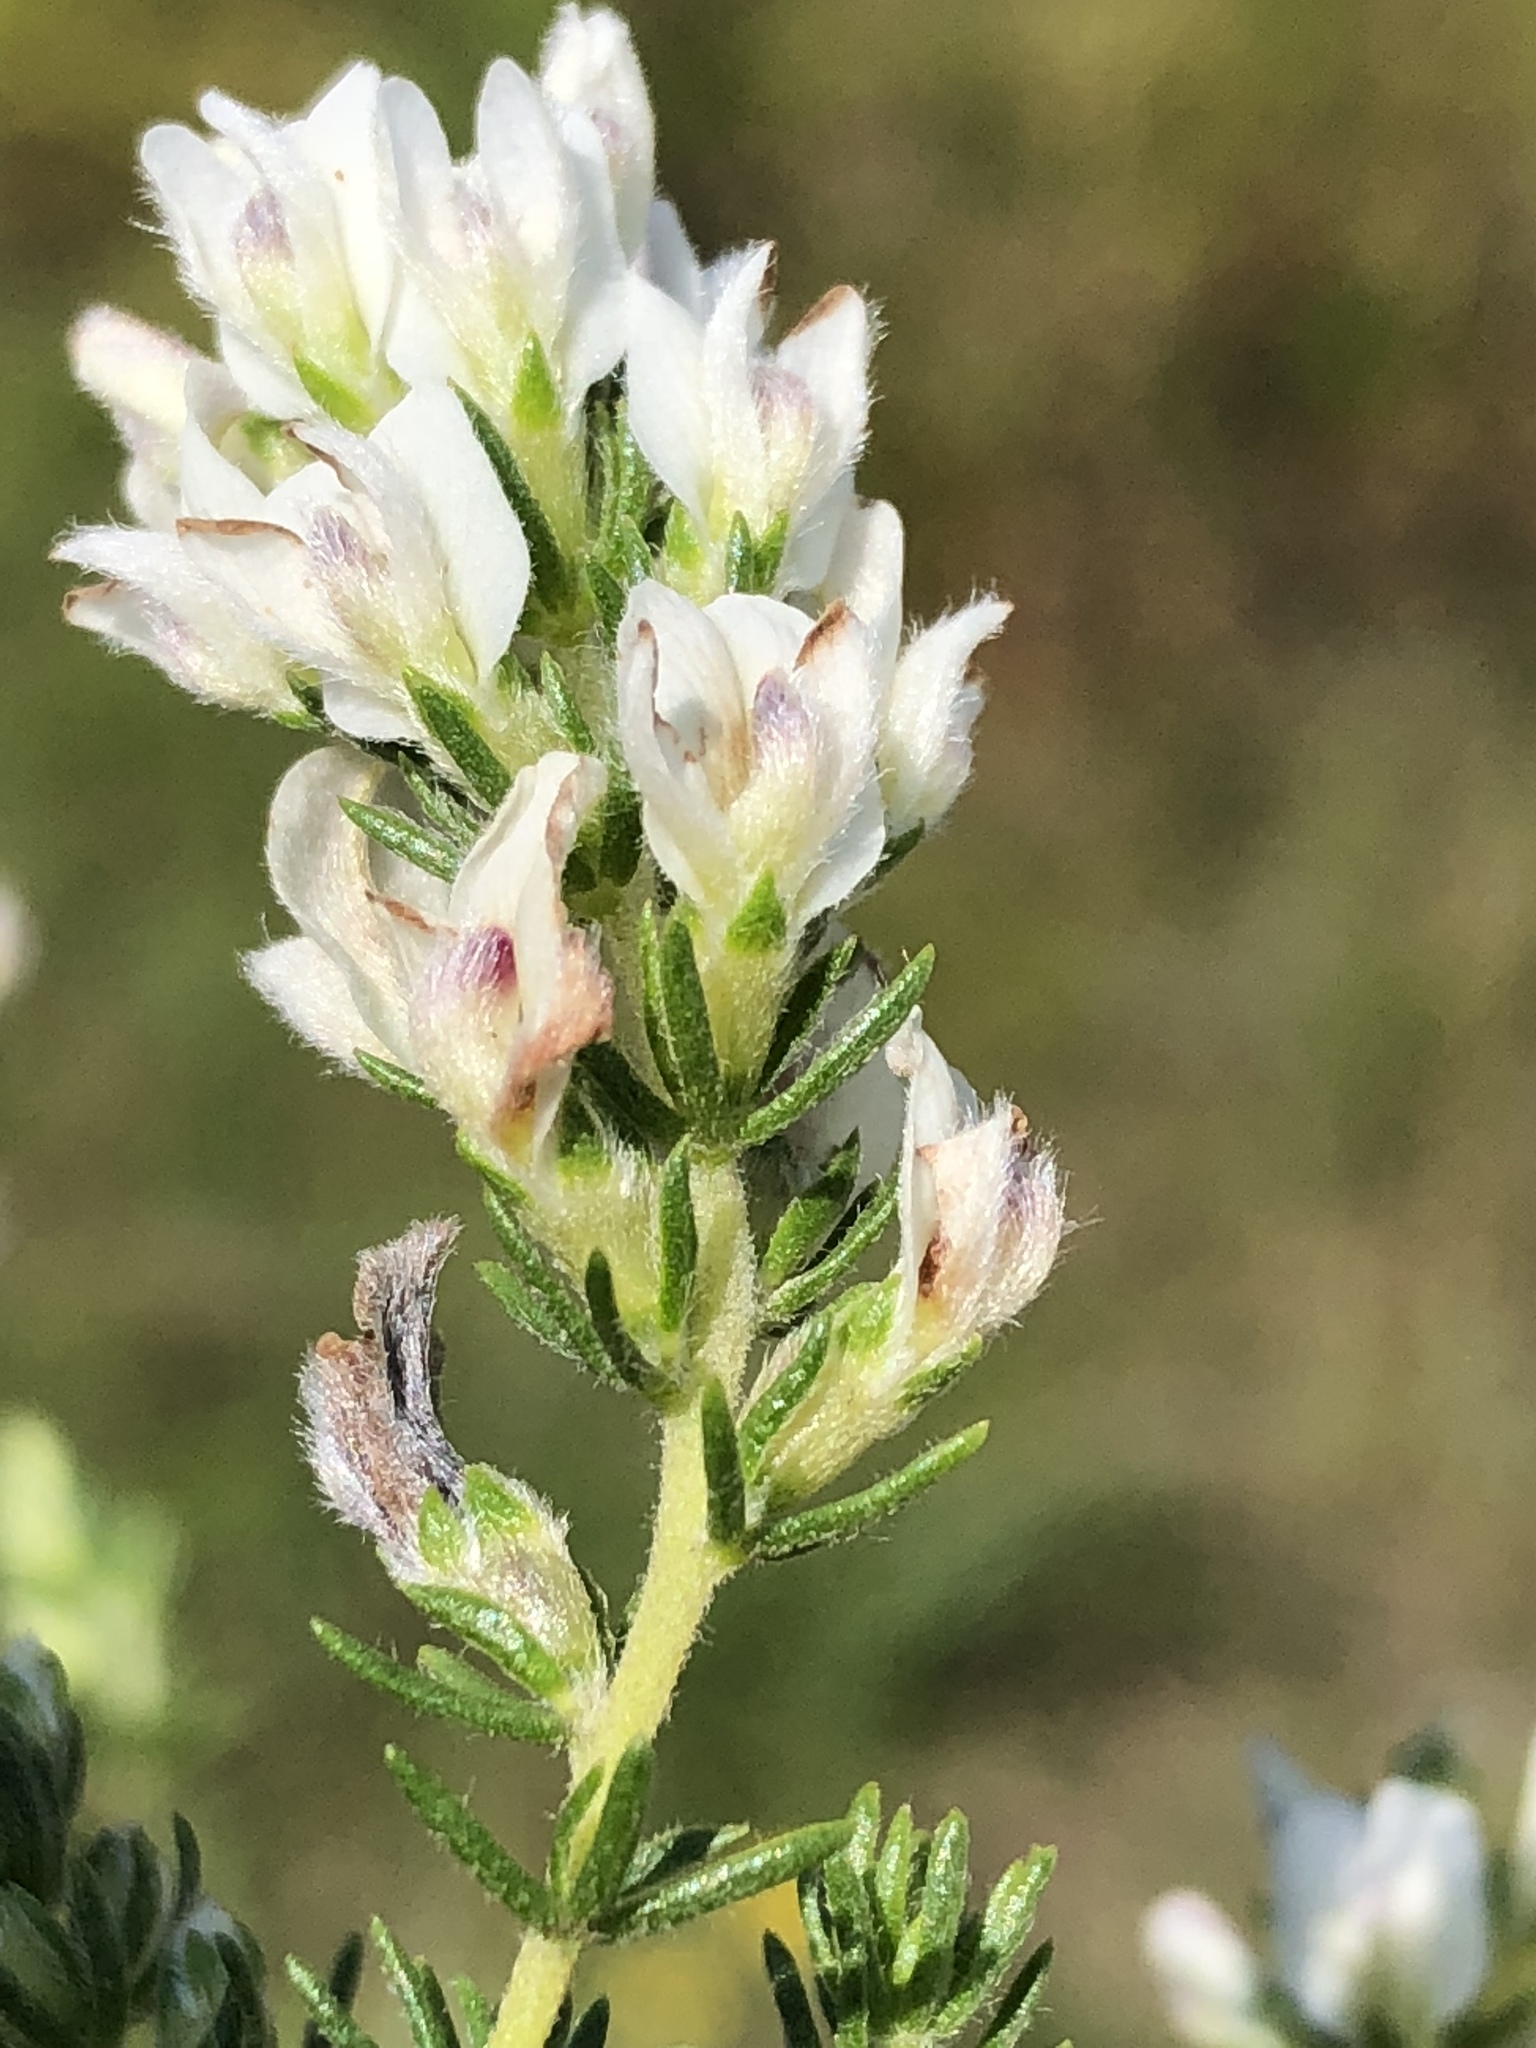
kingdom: Plantae
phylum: Tracheophyta
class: Magnoliopsida
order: Fabales
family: Fabaceae
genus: Aspalathus
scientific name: Aspalathus nigra
